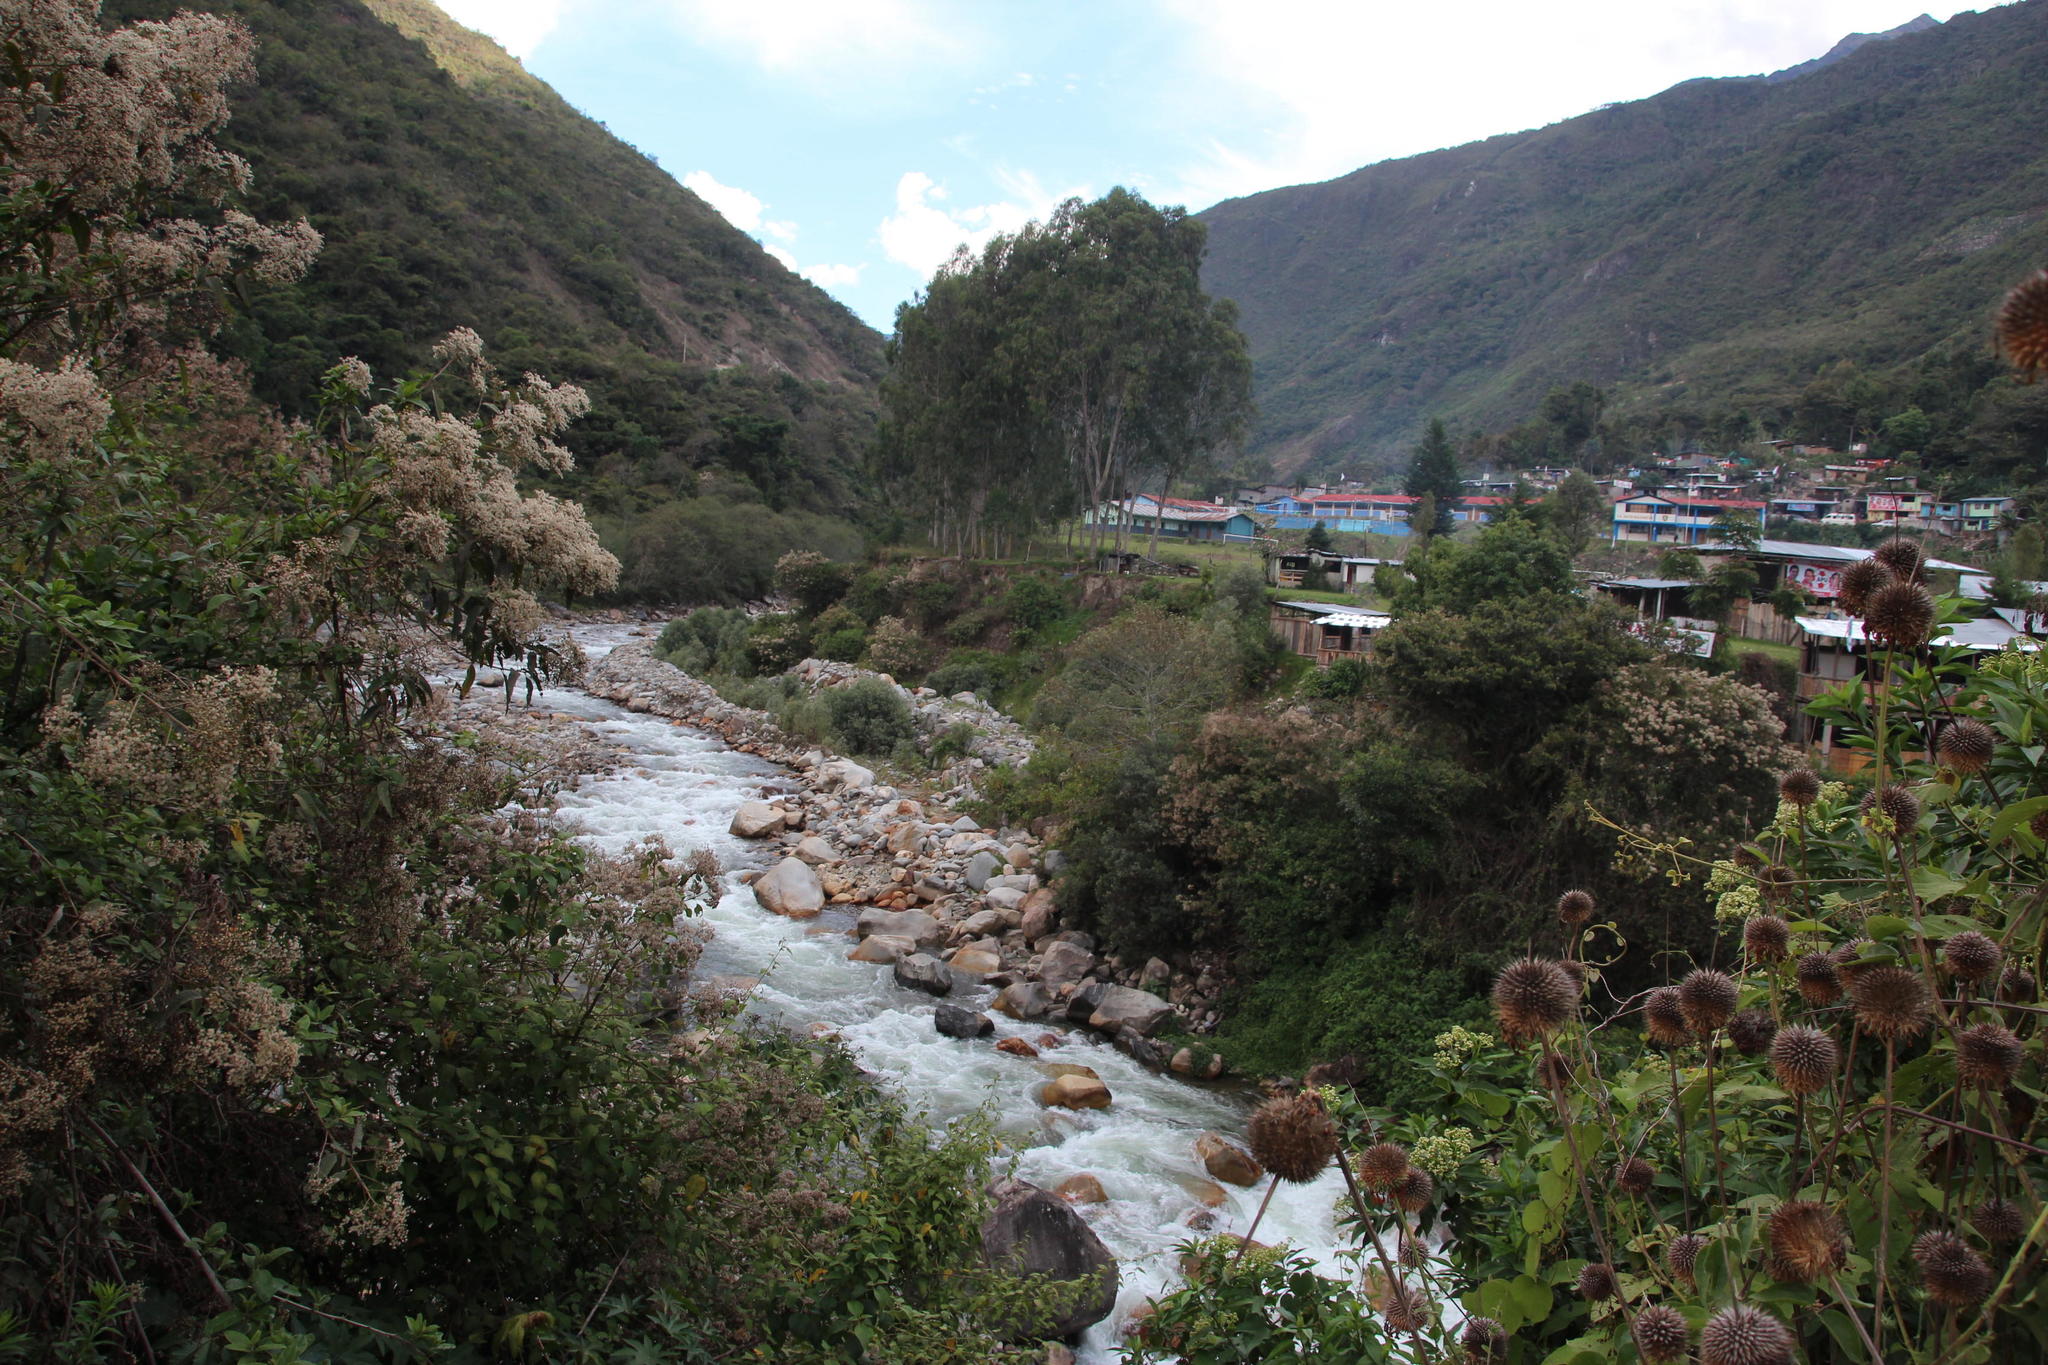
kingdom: Plantae
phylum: Tracheophyta
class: Magnoliopsida
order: Lamiales
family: Lamiaceae
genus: Leonotis
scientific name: Leonotis nepetifolia
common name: Christmas candlestick
